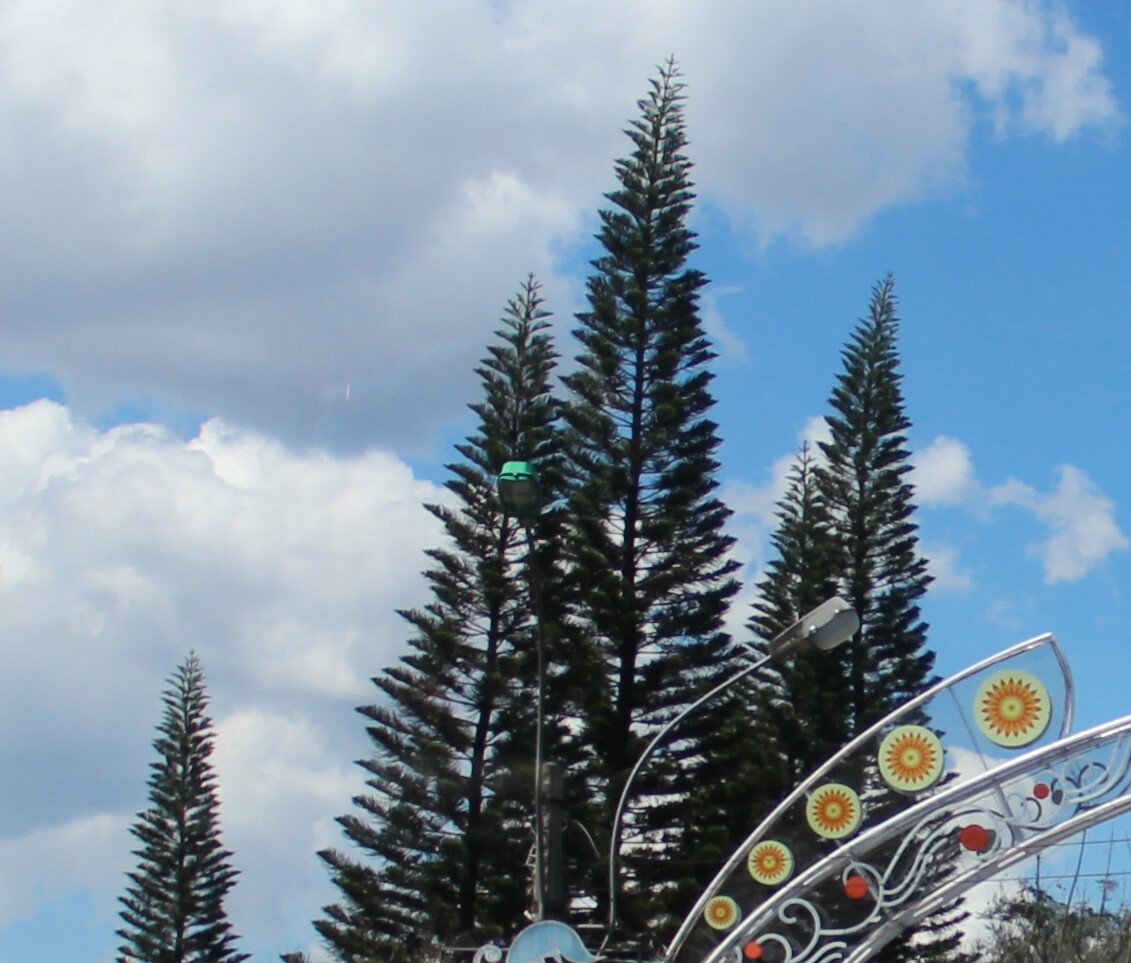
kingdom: Plantae
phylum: Tracheophyta
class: Pinopsida
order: Pinales
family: Araucariaceae
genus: Araucaria
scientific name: Araucaria columnaris
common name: Coral reef araucaria
